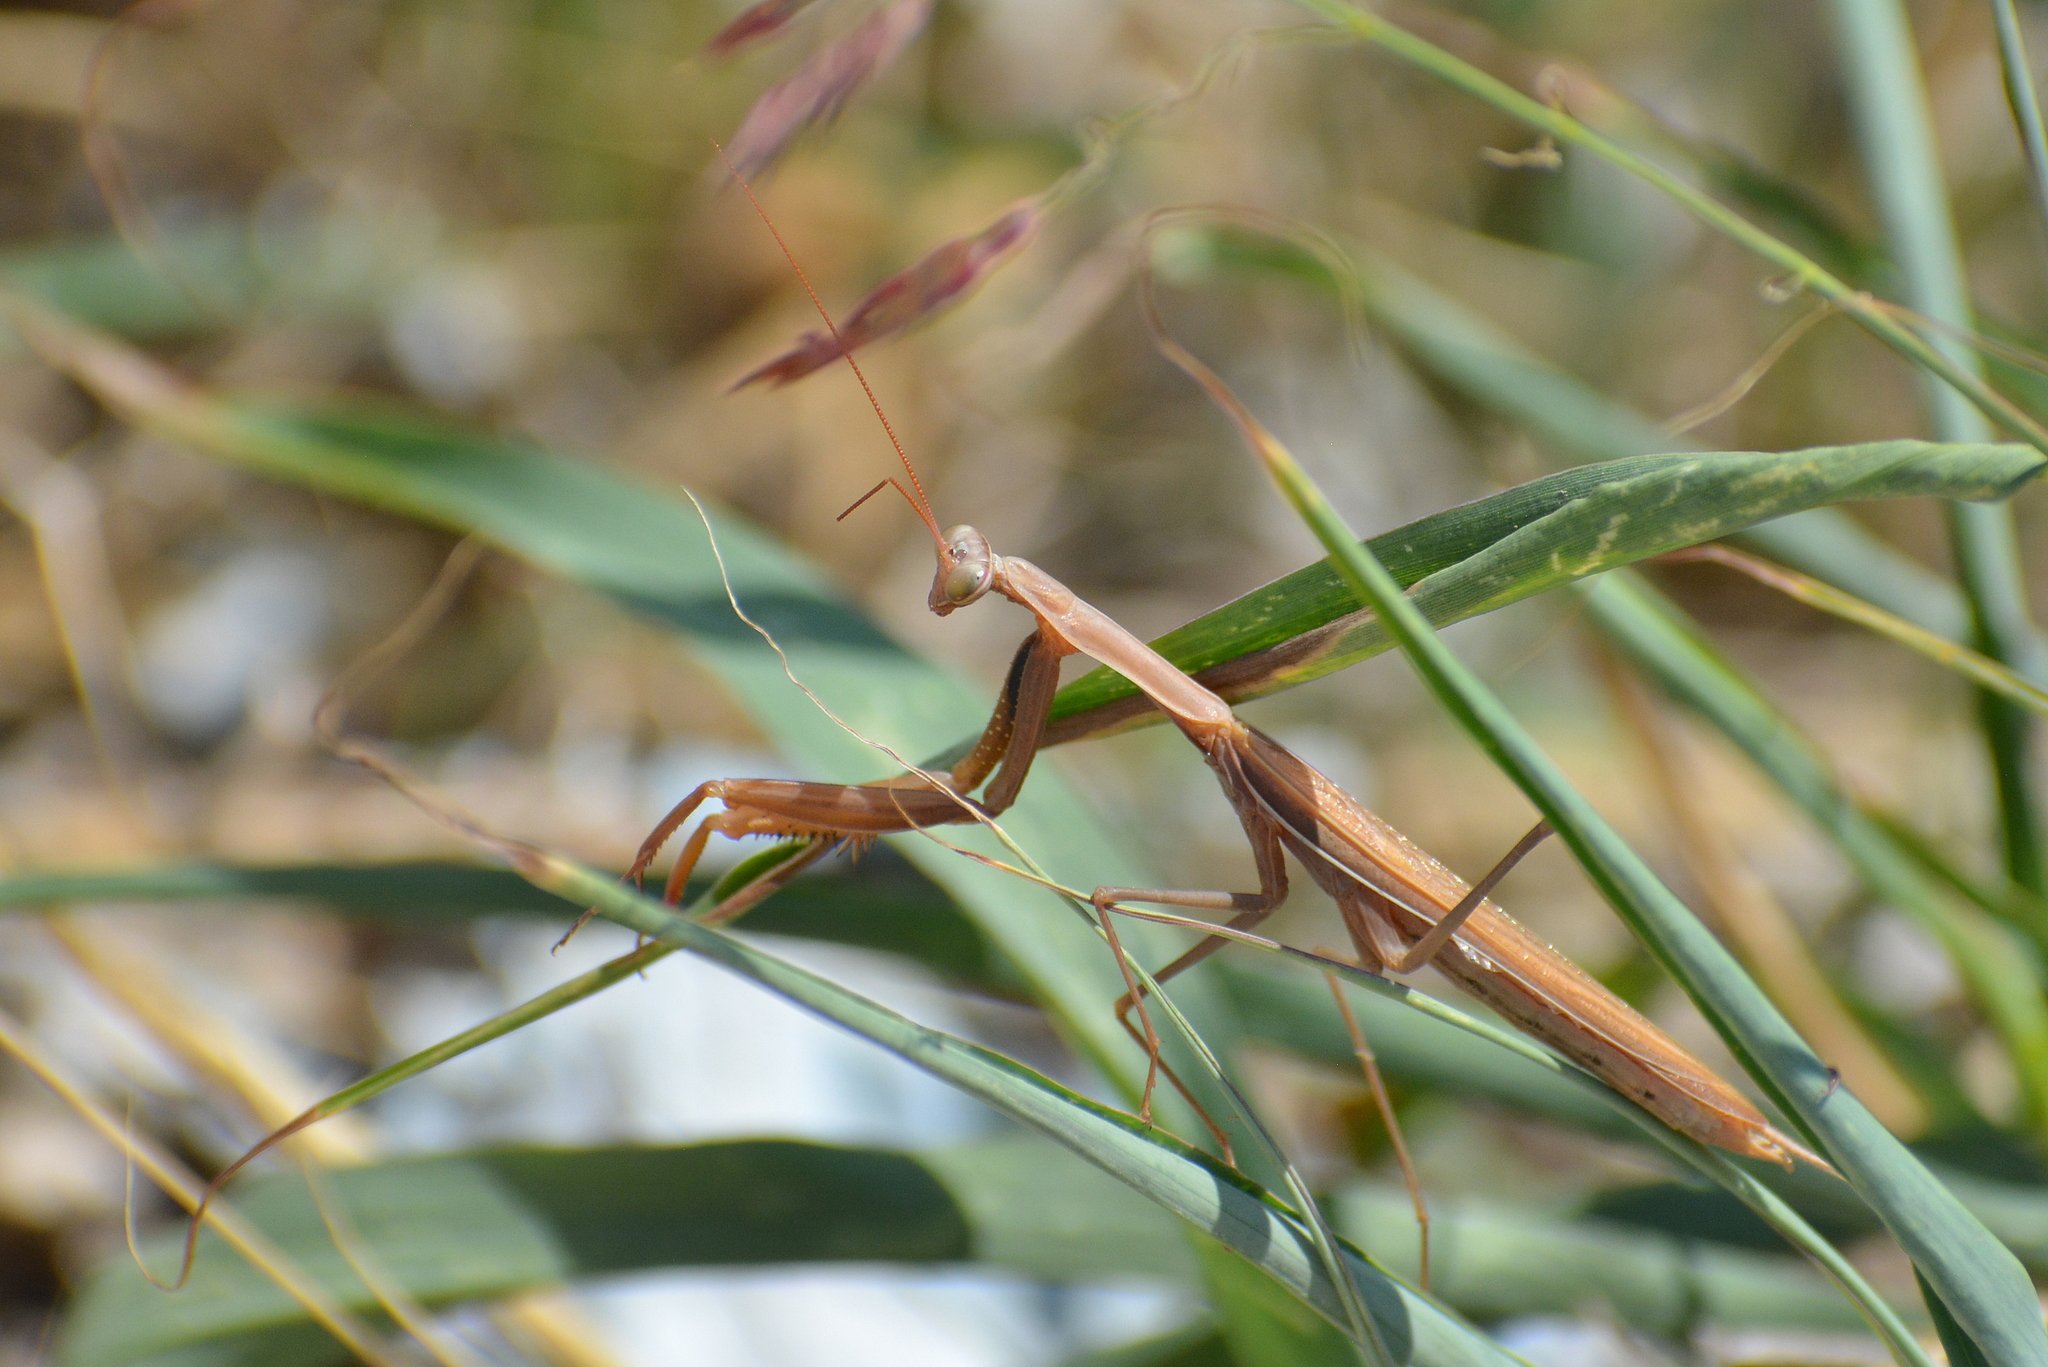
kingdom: Animalia
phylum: Arthropoda
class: Insecta
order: Mantodea
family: Mantidae
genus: Mantis
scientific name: Mantis religiosa
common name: Praying mantis
